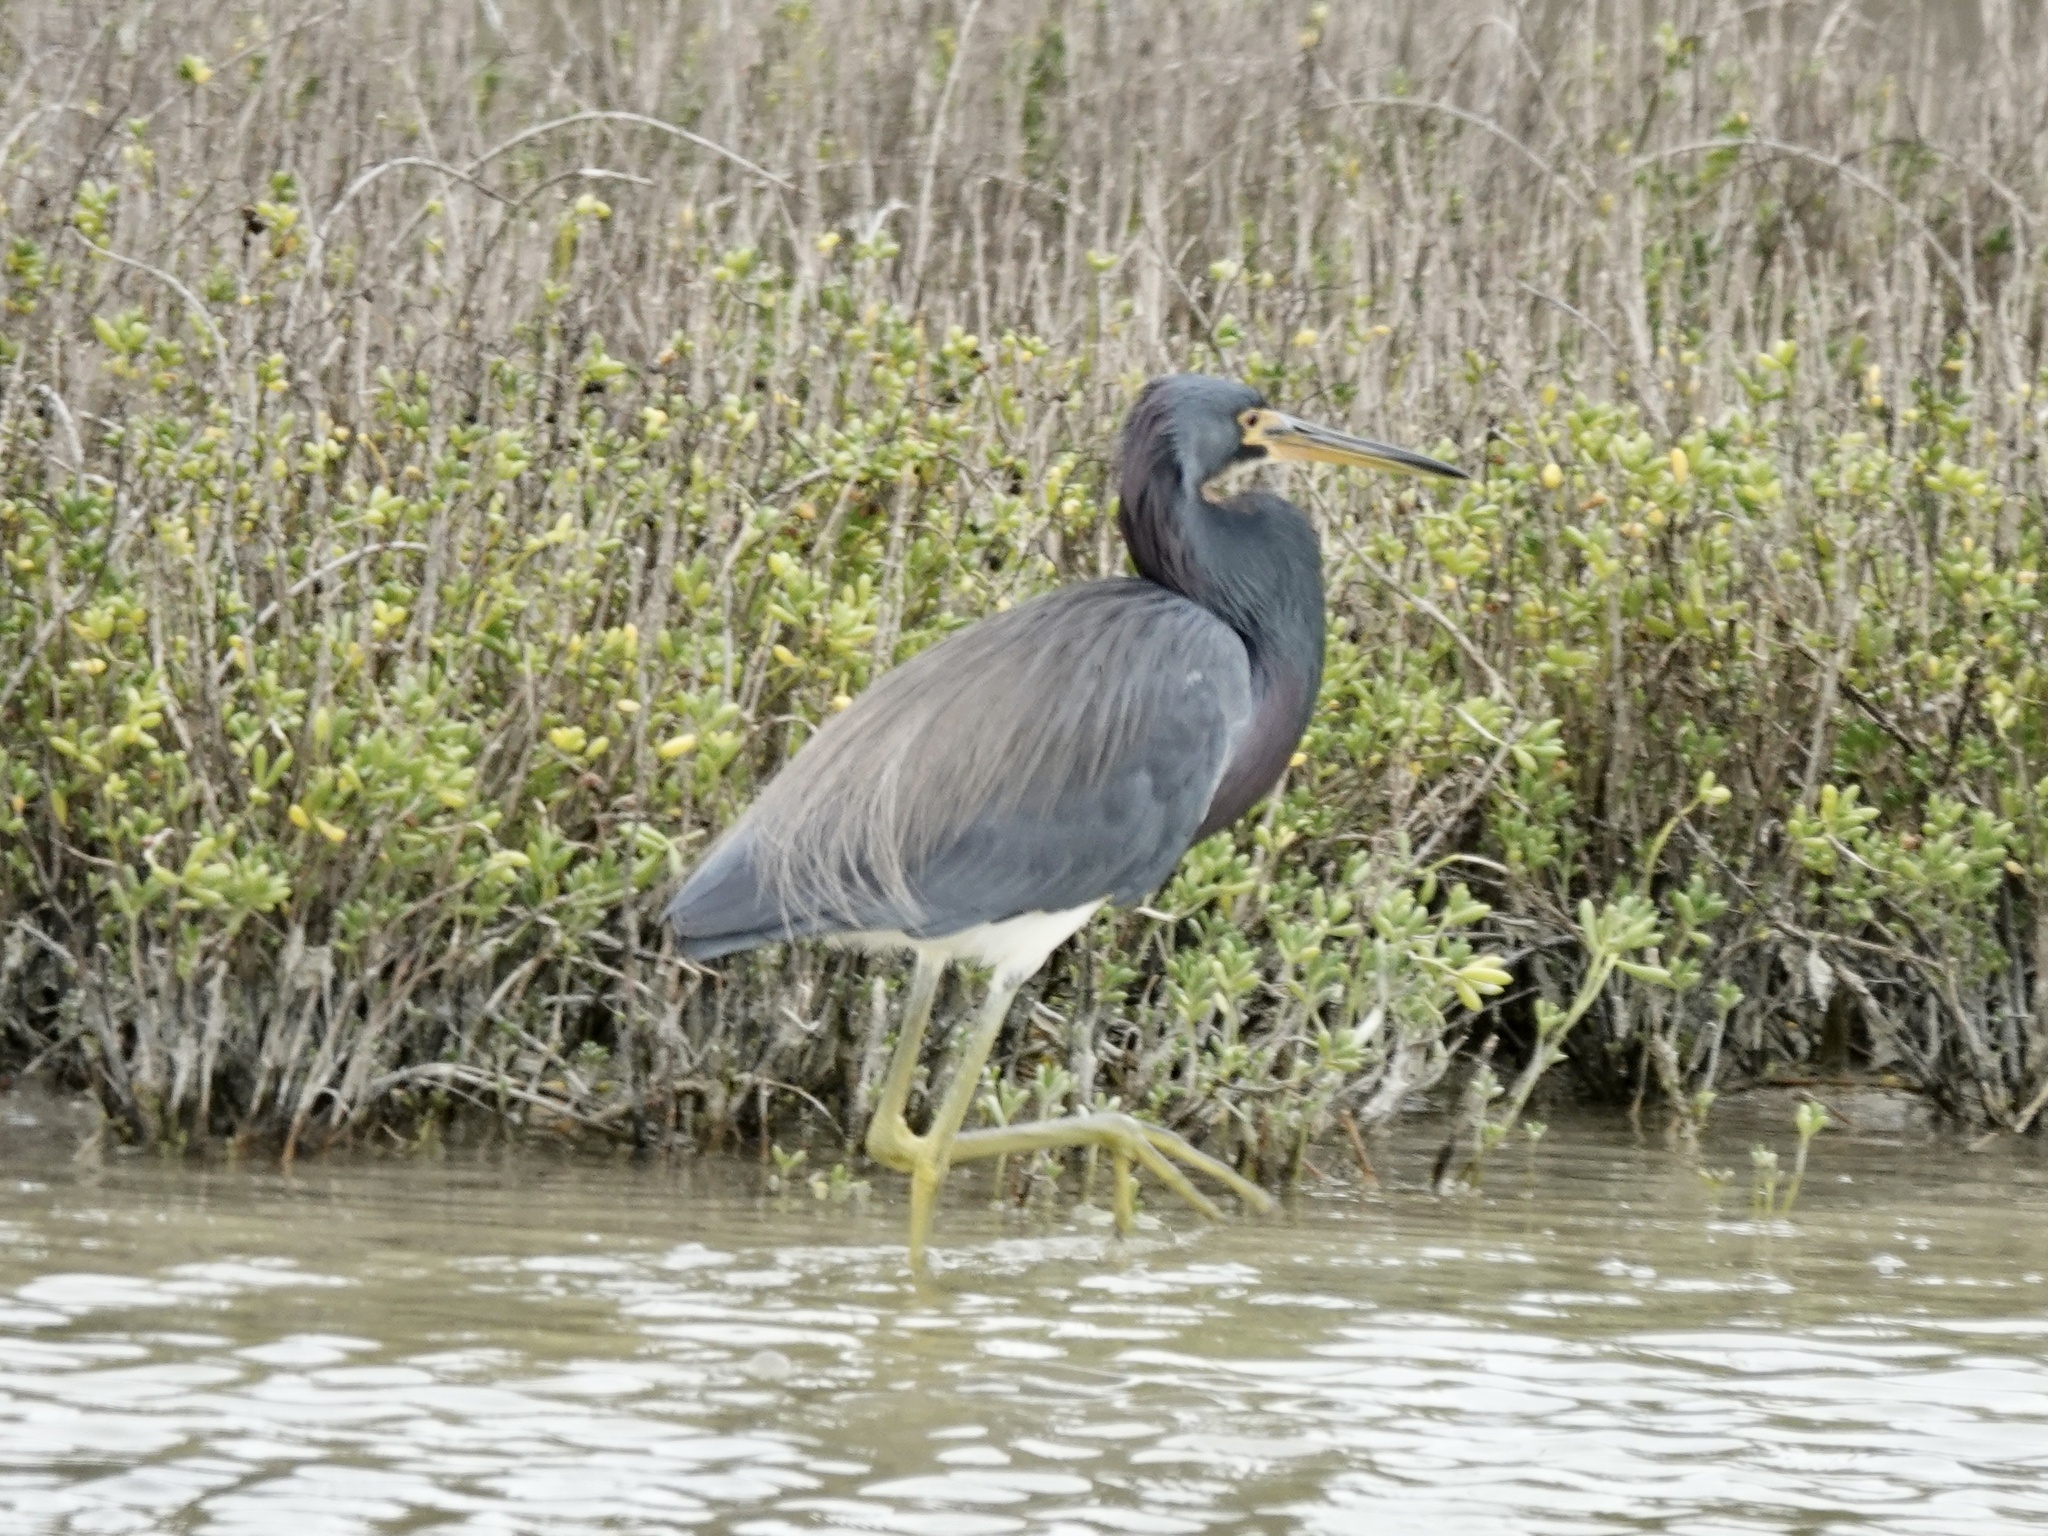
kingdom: Animalia
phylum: Chordata
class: Aves
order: Pelecaniformes
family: Ardeidae
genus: Egretta
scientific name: Egretta tricolor
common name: Tricolored heron
